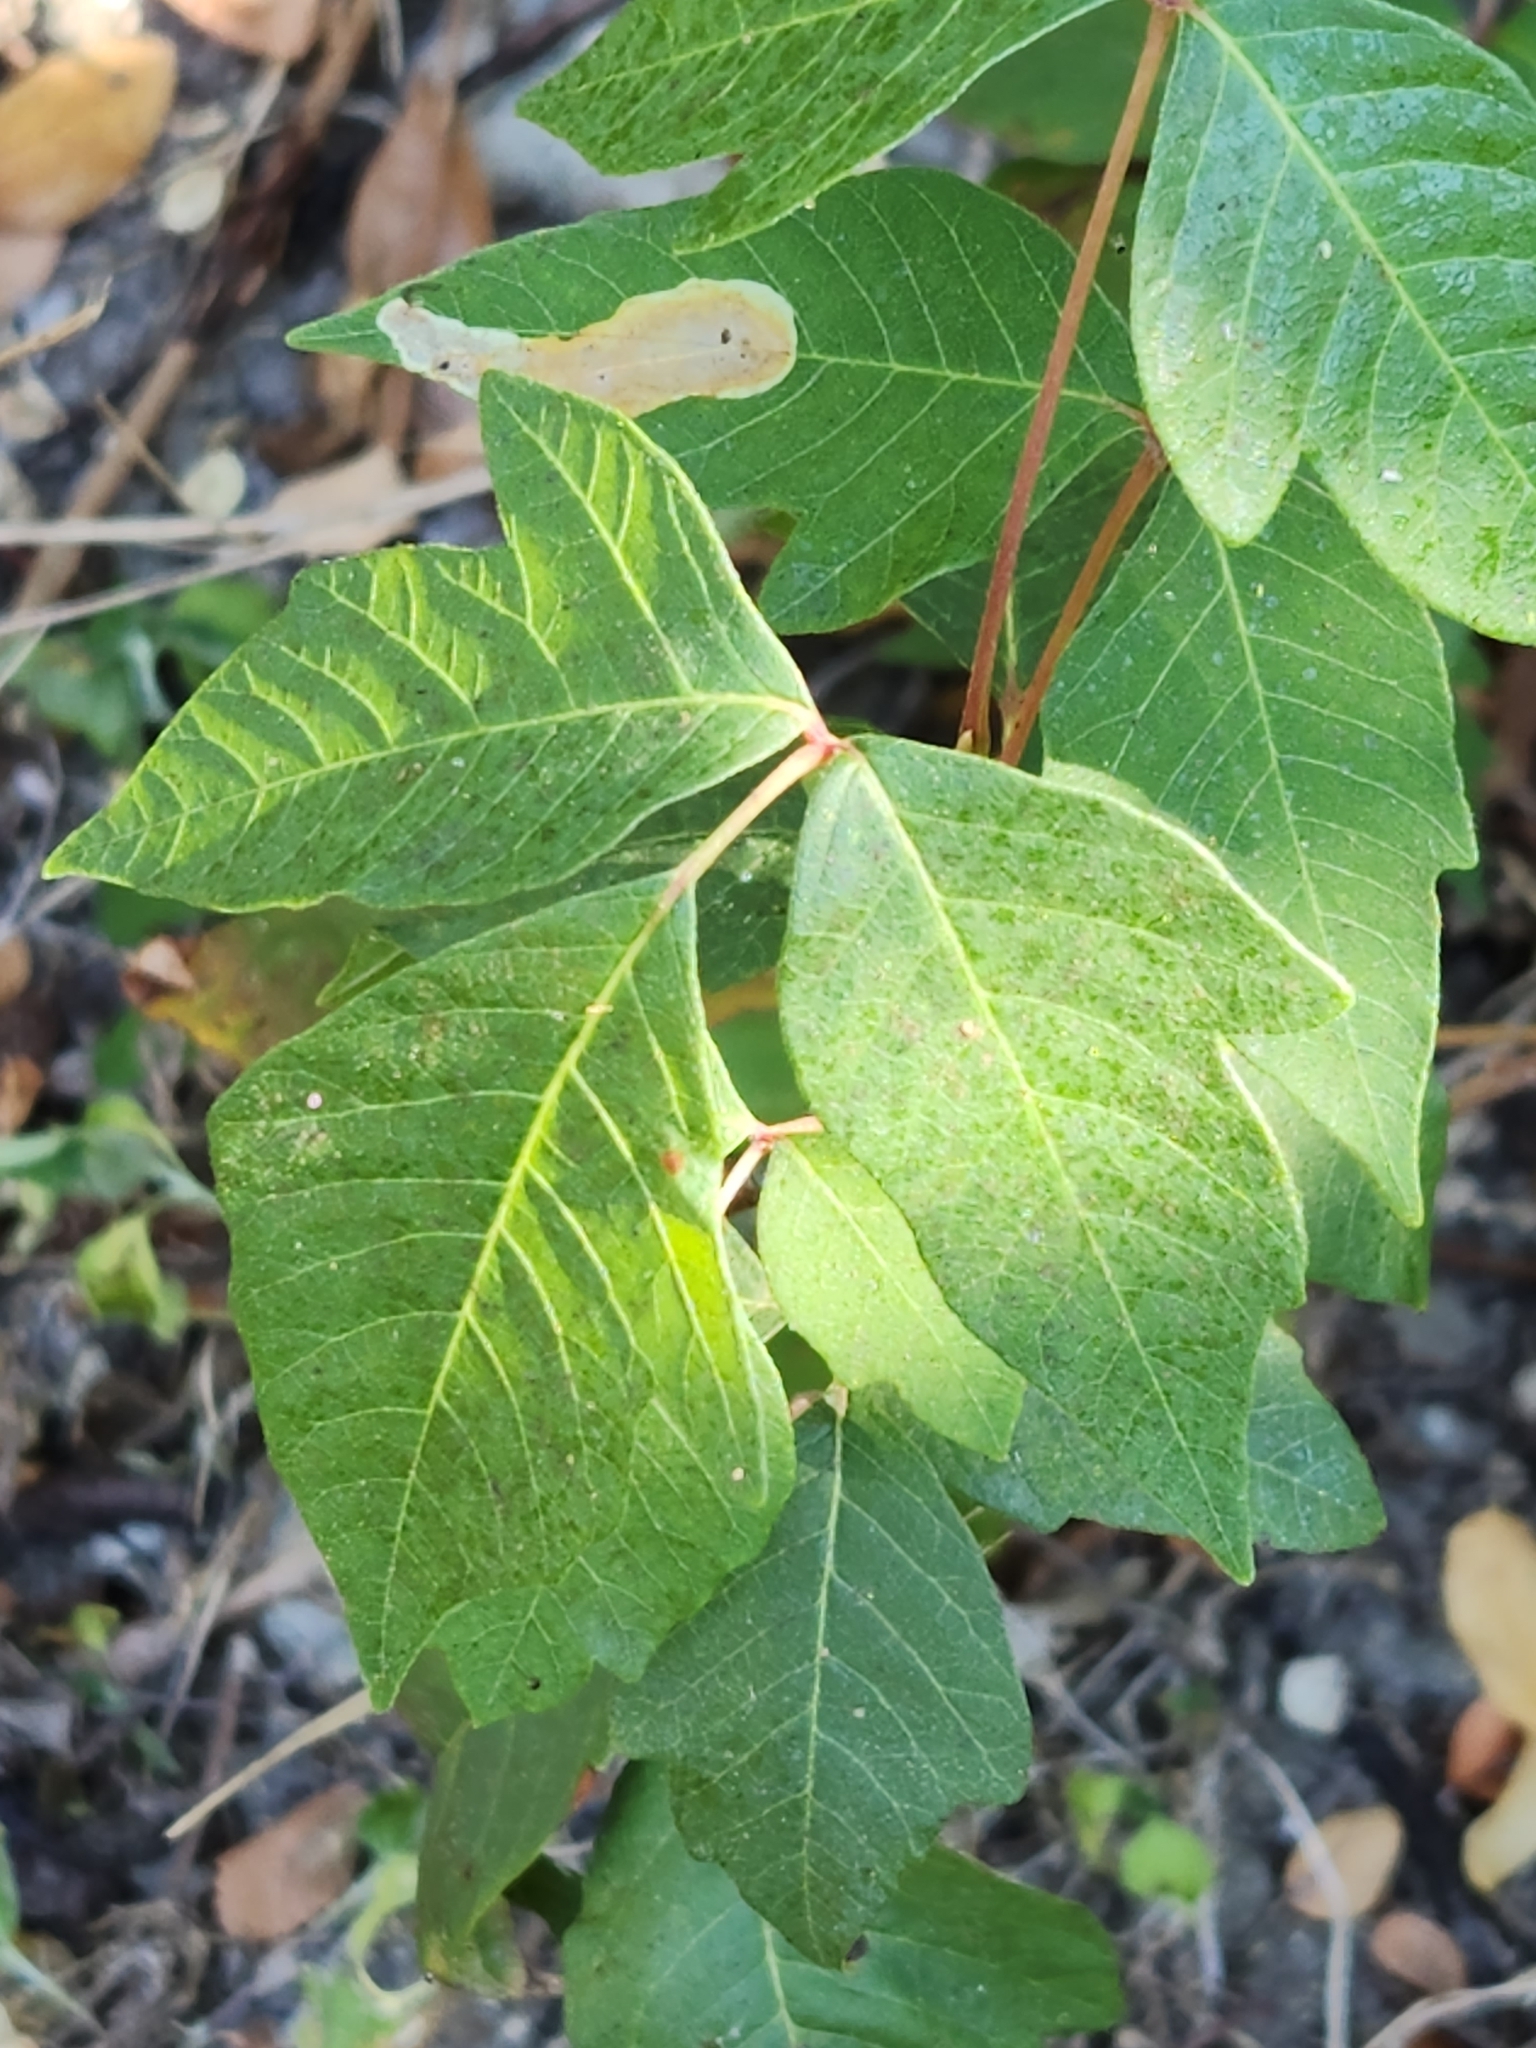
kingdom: Plantae
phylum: Tracheophyta
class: Magnoliopsida
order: Sapindales
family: Anacardiaceae
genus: Toxicodendron
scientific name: Toxicodendron radicans
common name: Poison ivy
